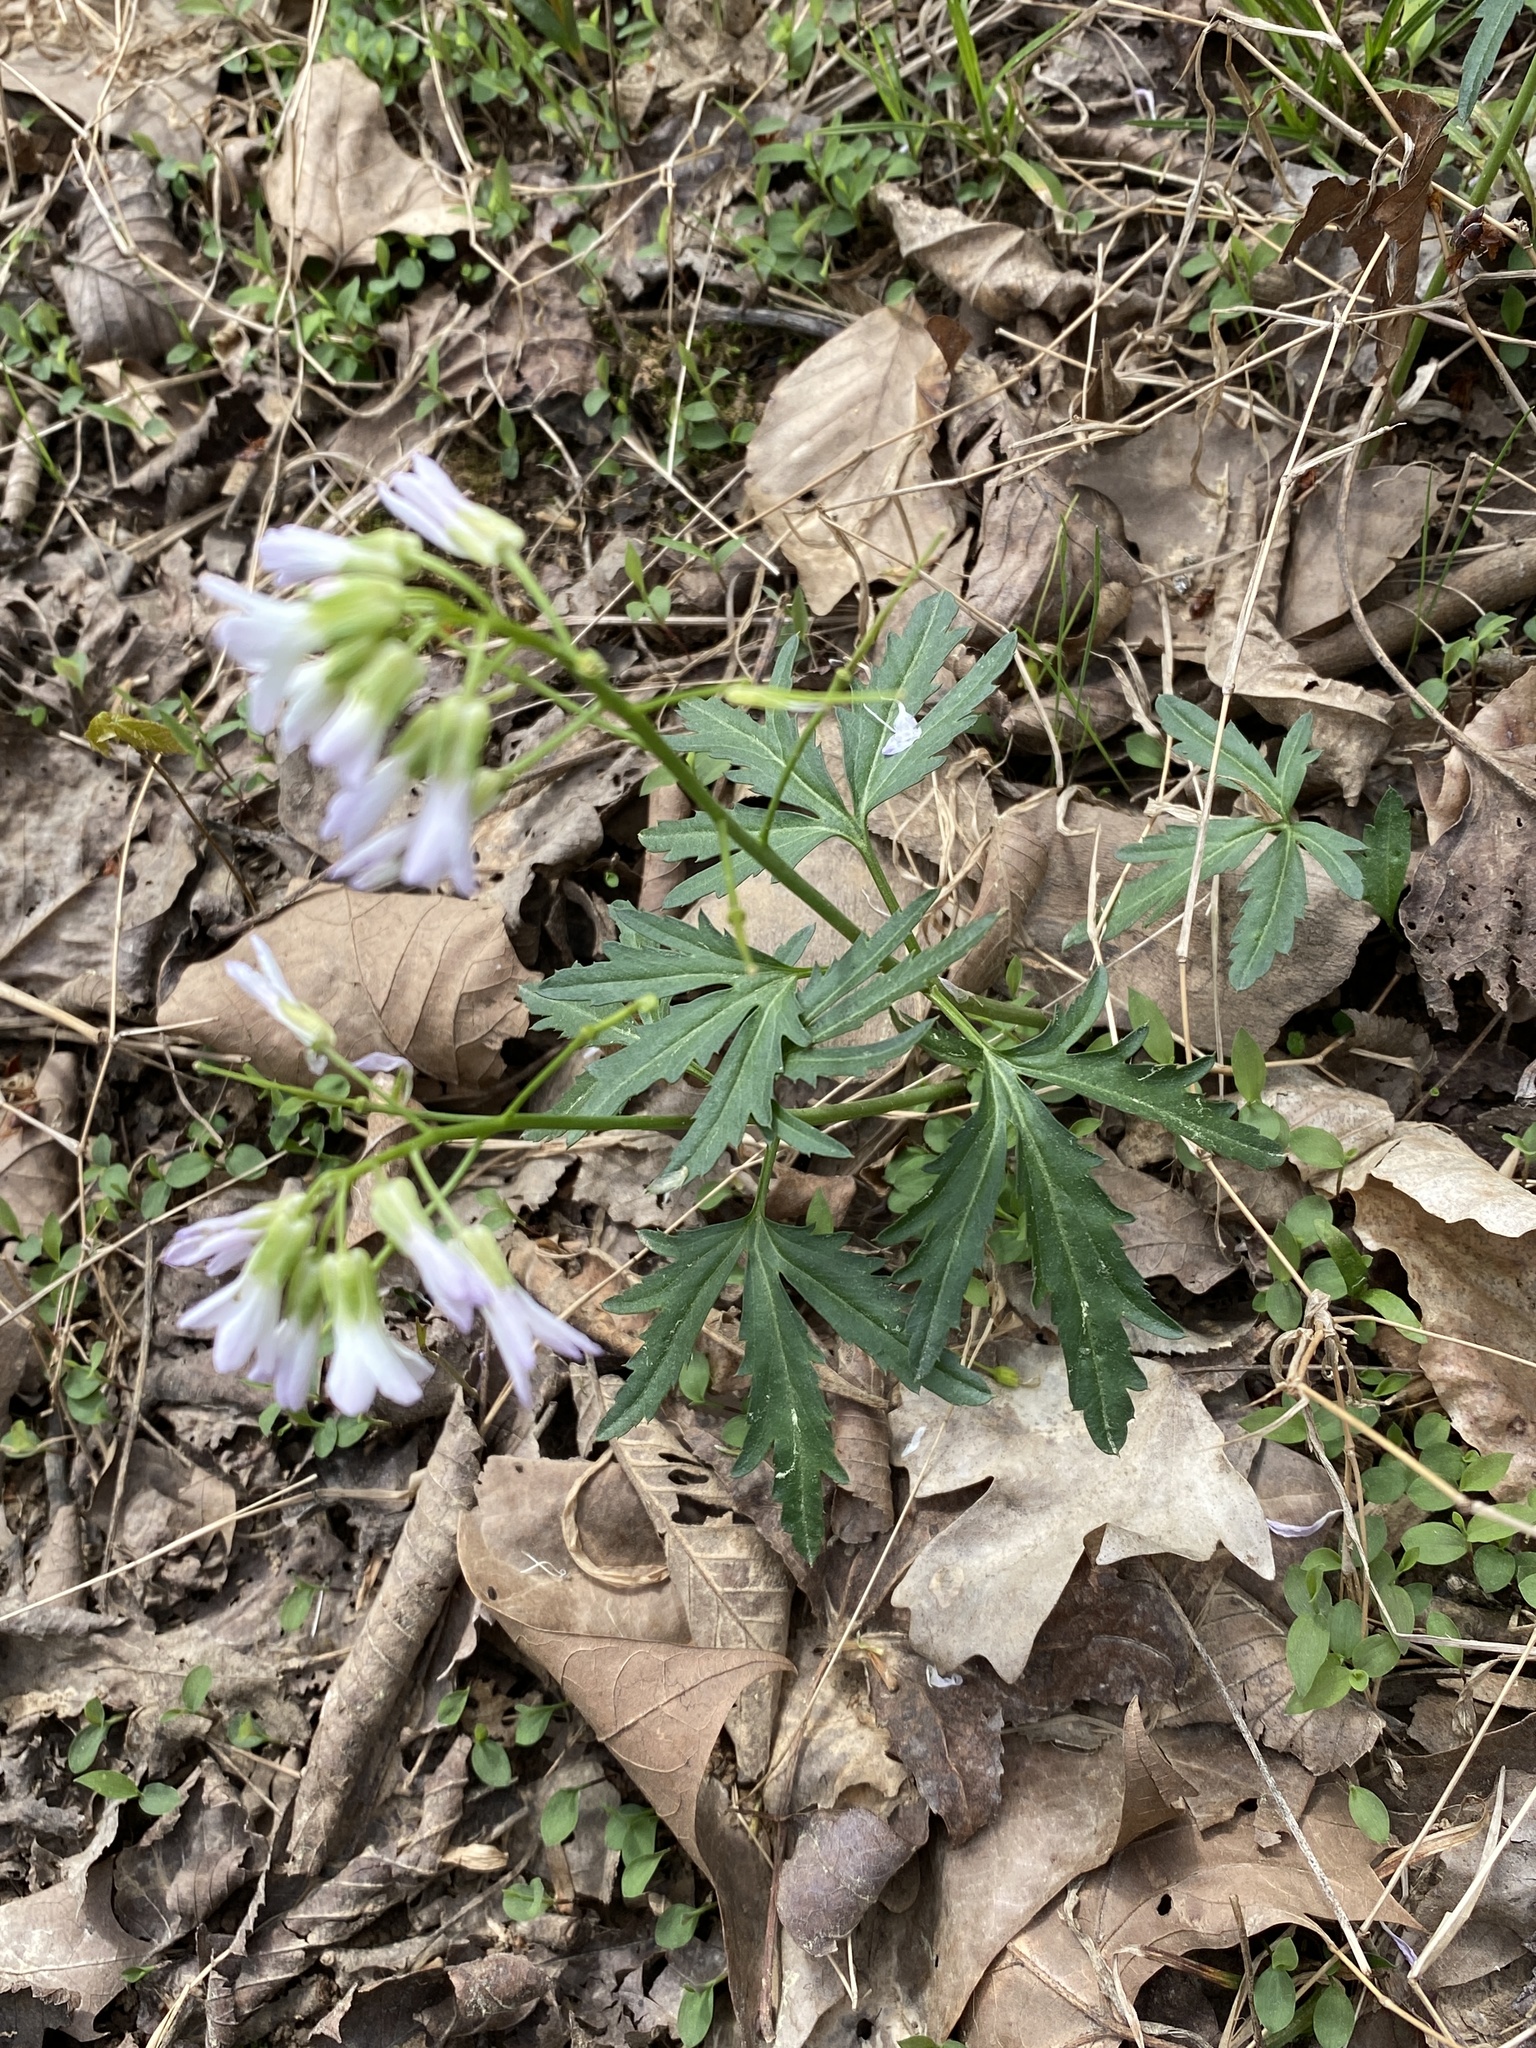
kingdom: Plantae
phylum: Tracheophyta
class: Magnoliopsida
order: Brassicales
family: Brassicaceae
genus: Cardamine
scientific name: Cardamine concatenata
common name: Cut-leaf toothcup
